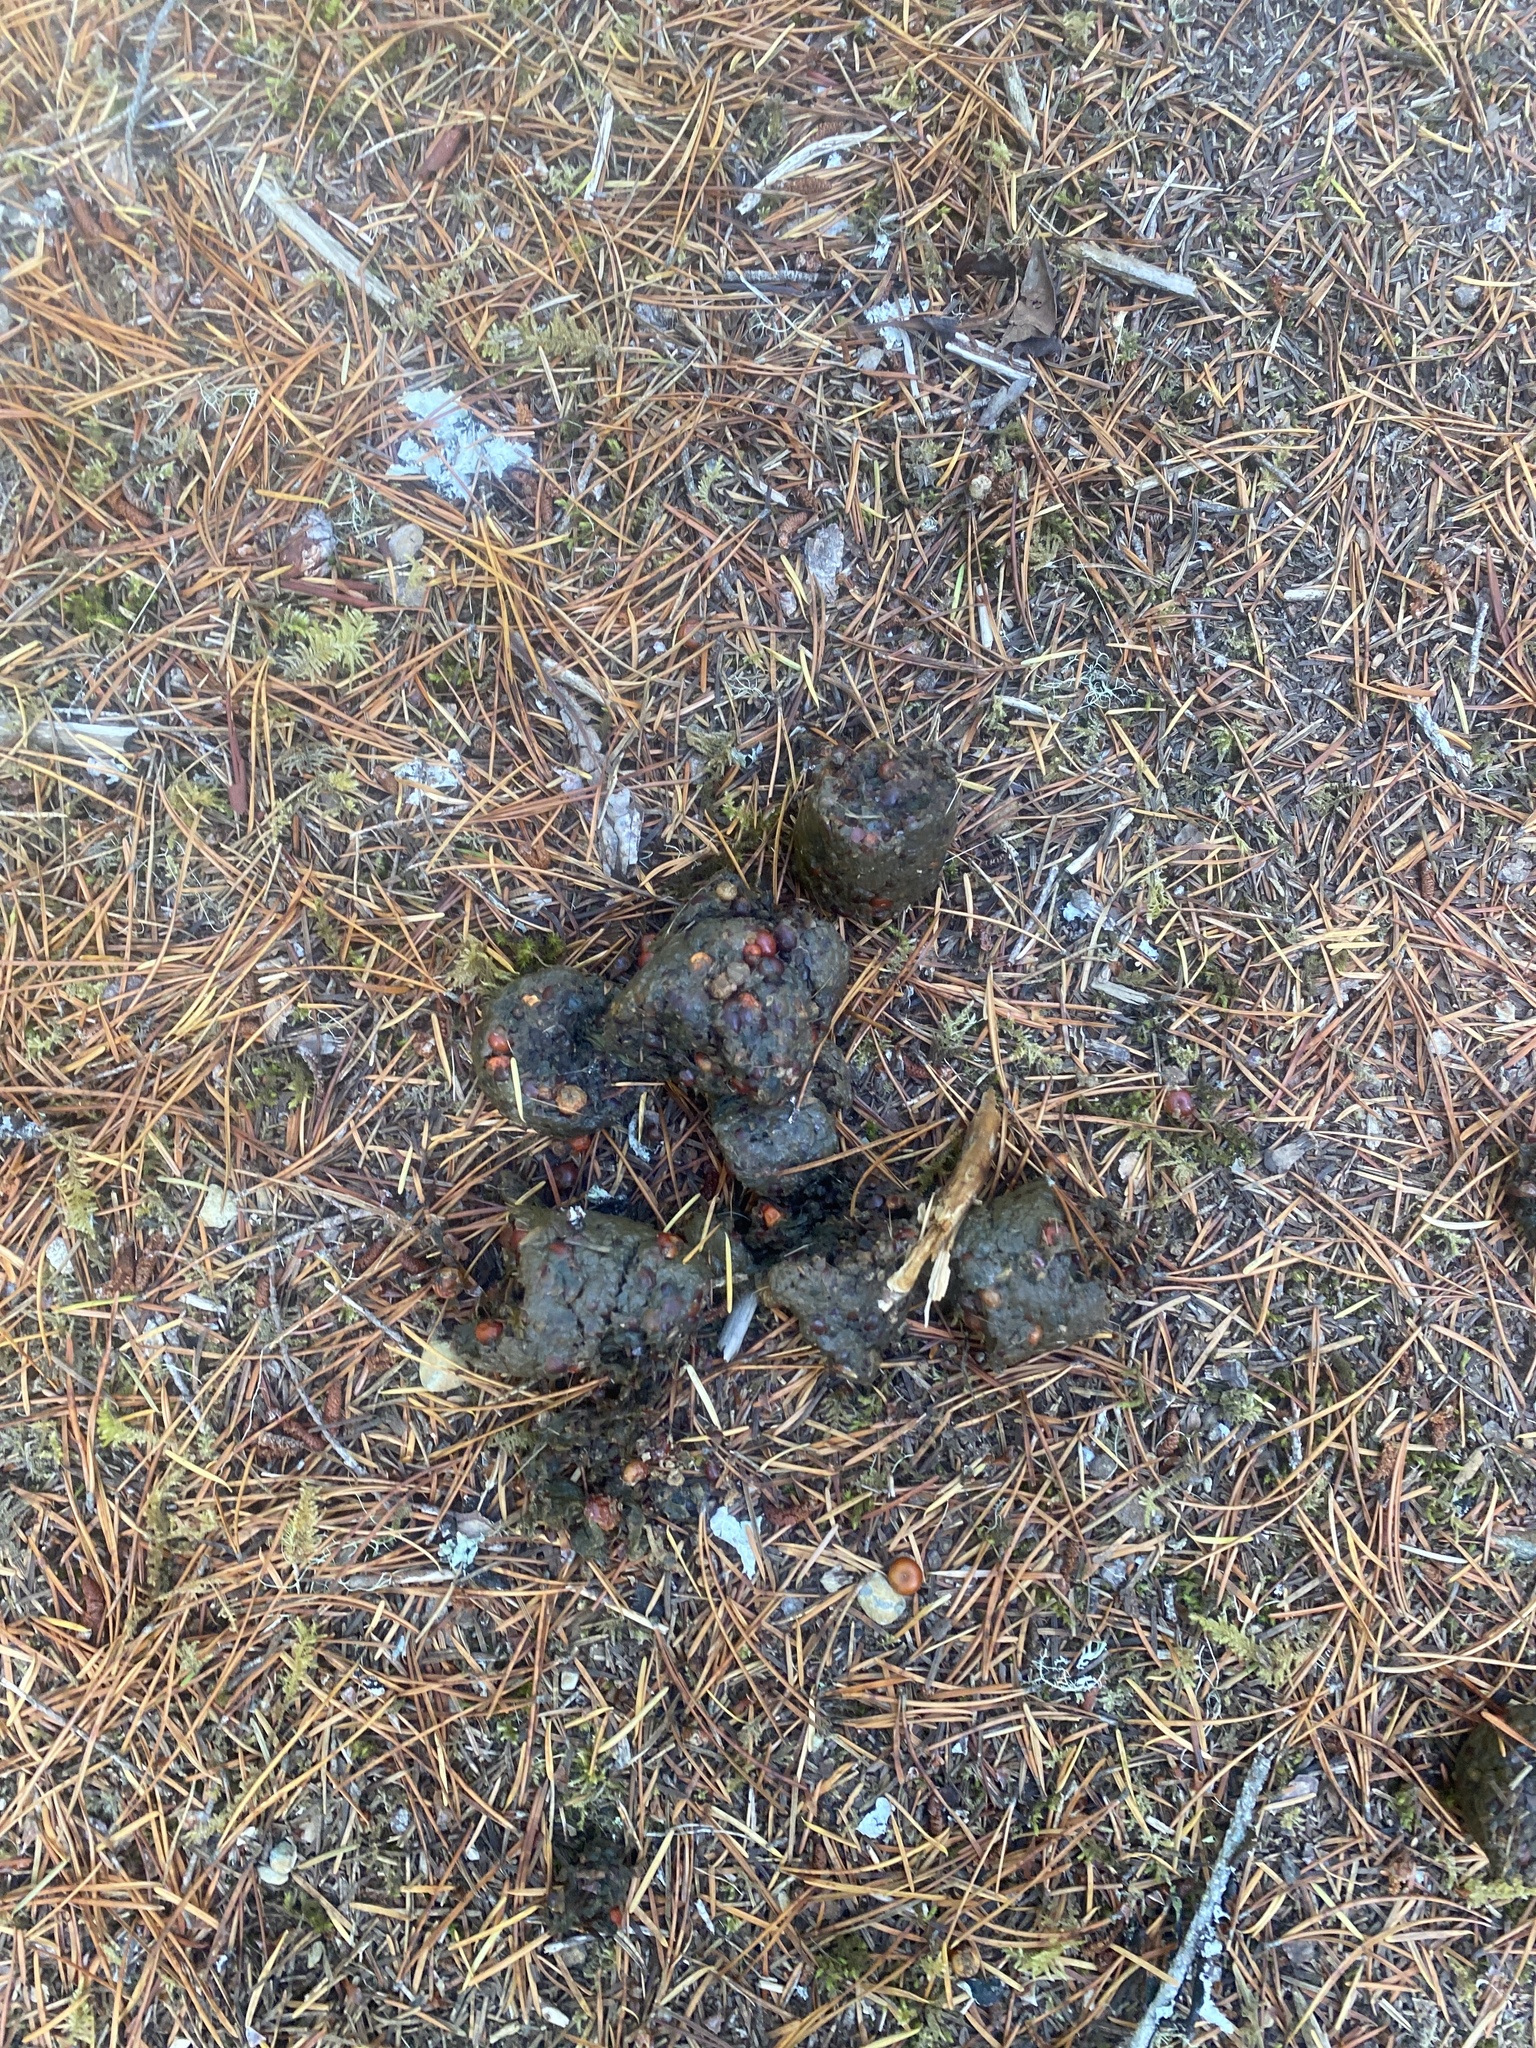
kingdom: Animalia
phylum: Chordata
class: Mammalia
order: Carnivora
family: Ursidae
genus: Ursus
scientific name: Ursus americanus
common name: American black bear
